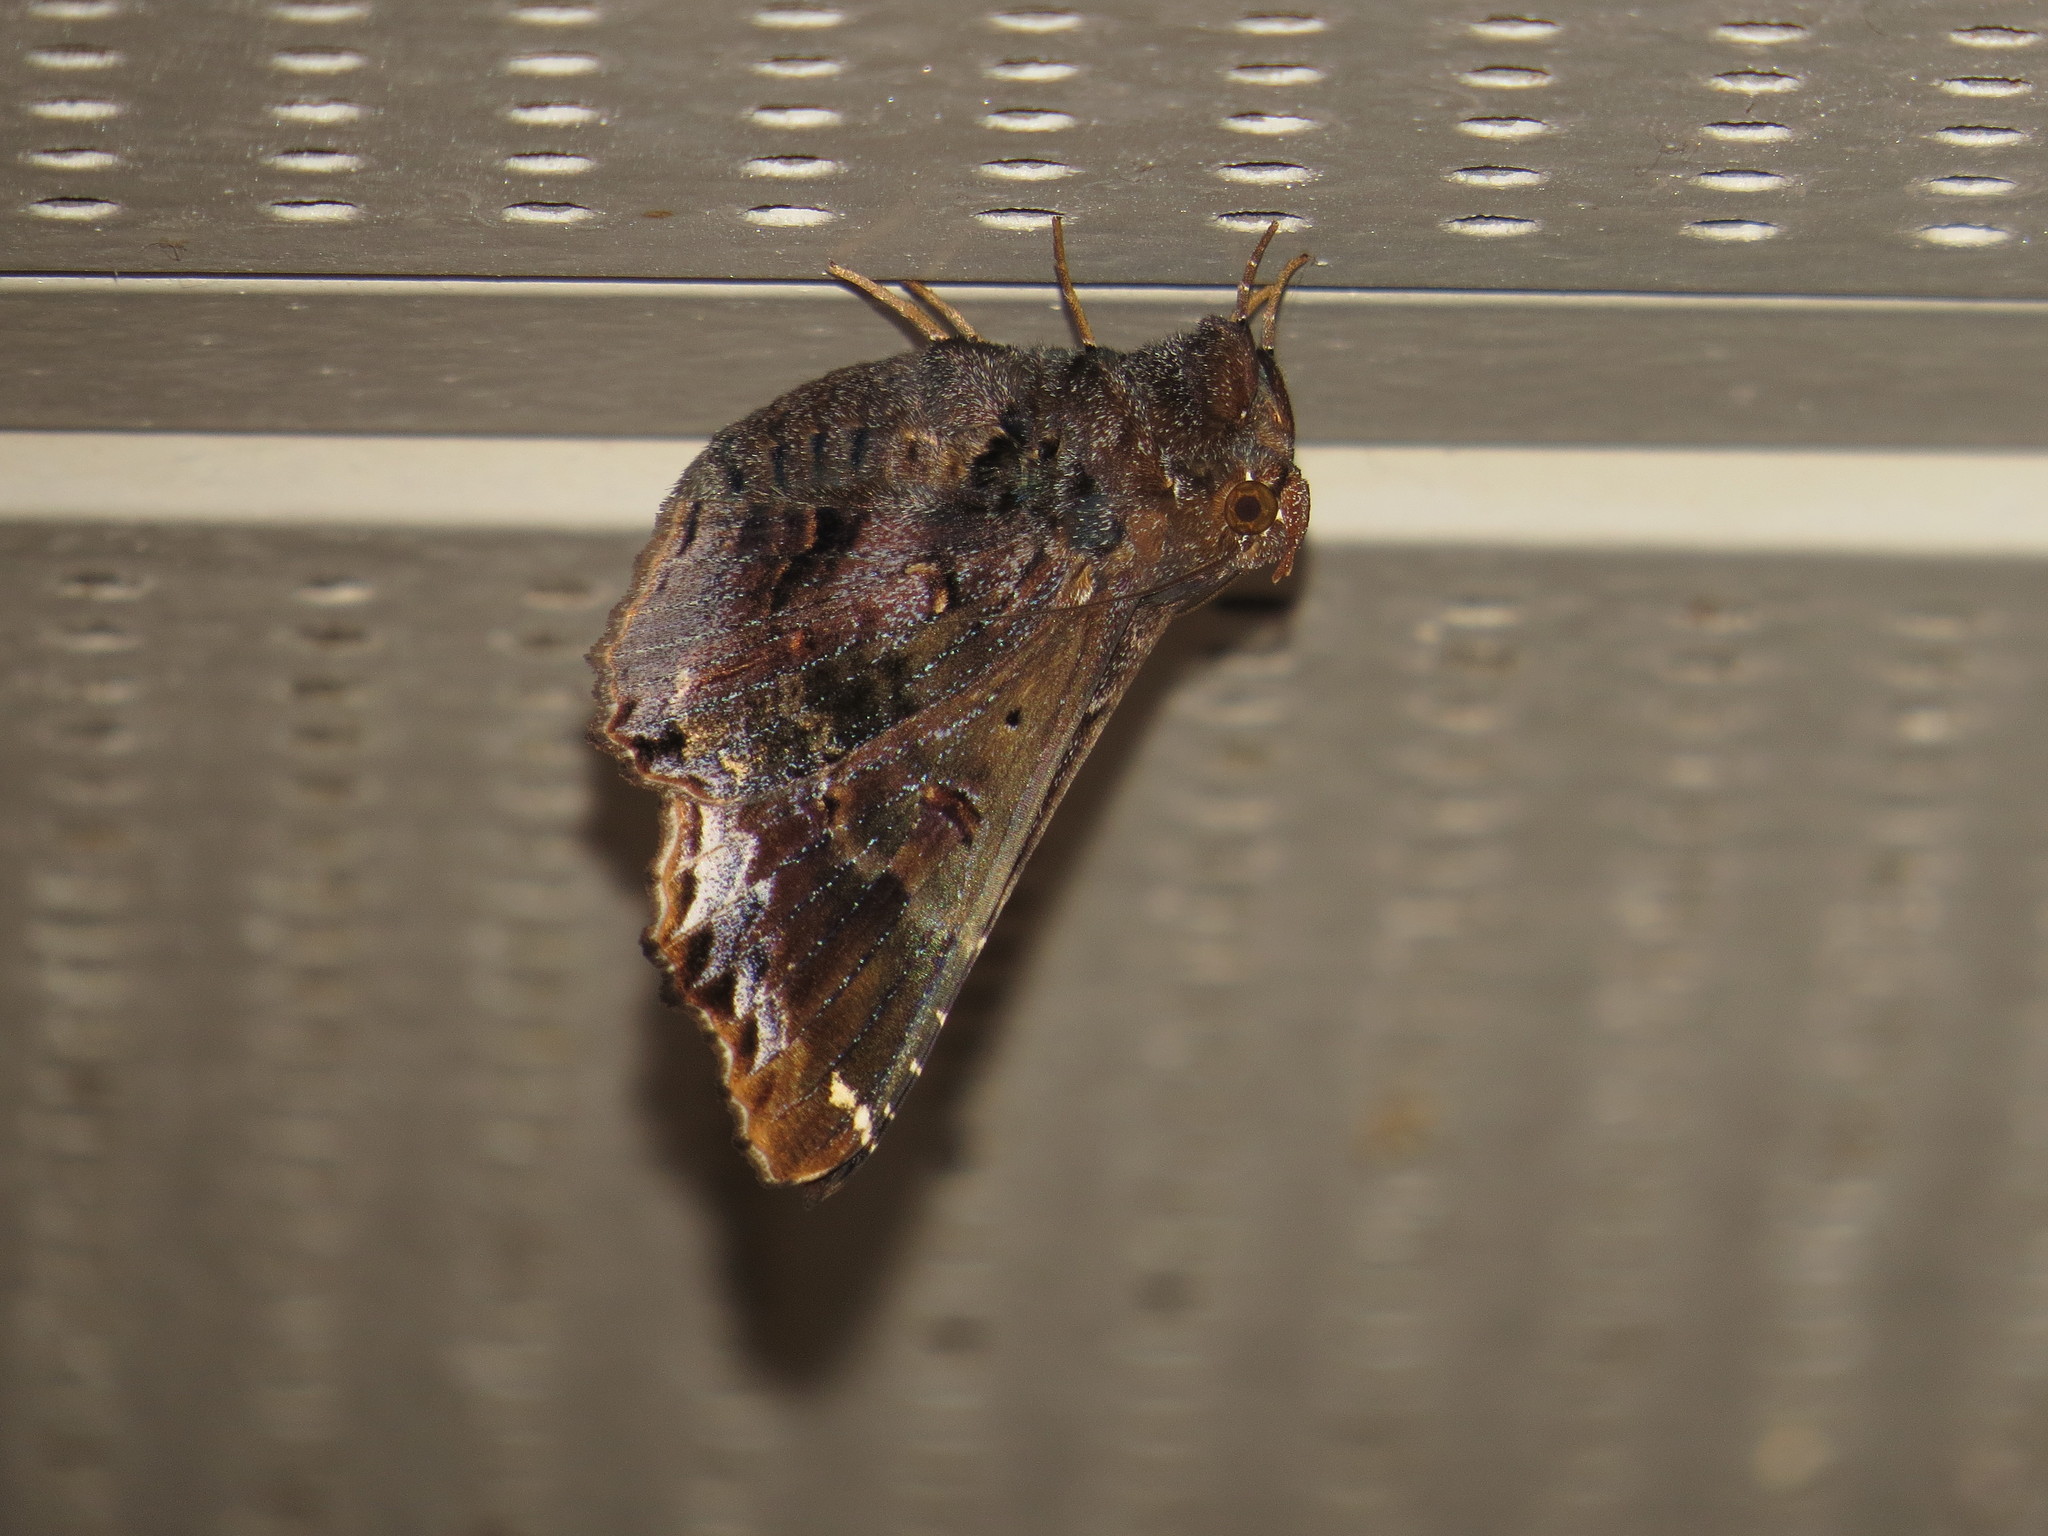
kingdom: Animalia
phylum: Arthropoda
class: Insecta
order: Lepidoptera
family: Erebidae
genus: Lacera
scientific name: Lacera noctilio
